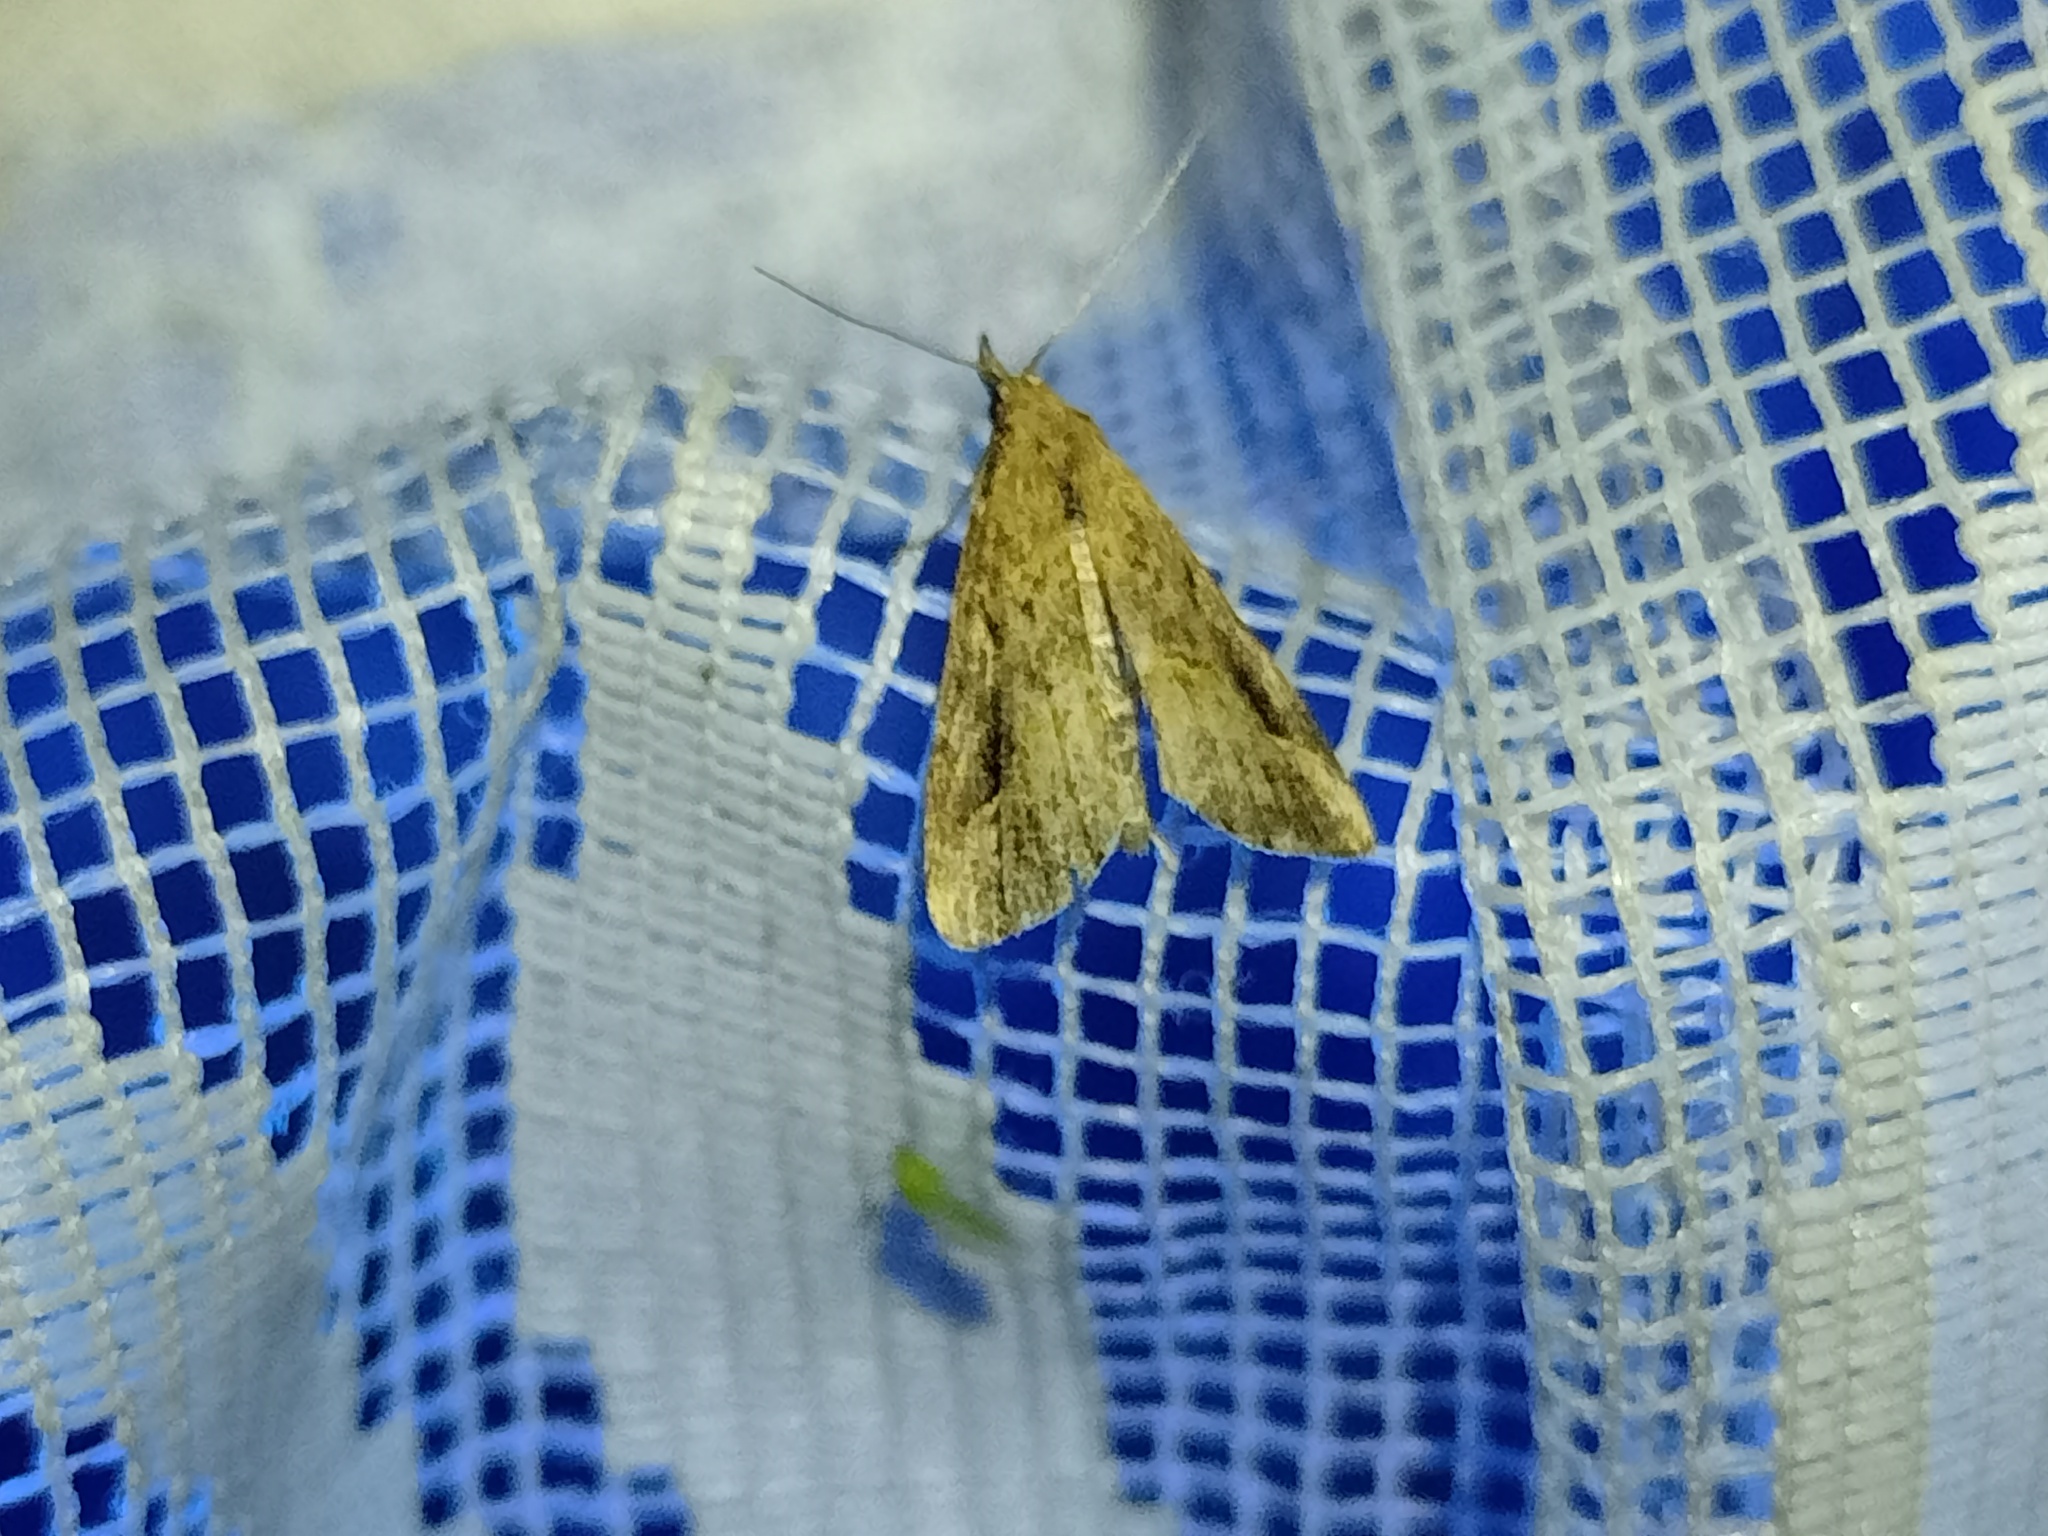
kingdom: Animalia
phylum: Arthropoda
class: Insecta
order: Lepidoptera
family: Erebidae
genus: Schrankia
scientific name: Schrankia costaestrigalis
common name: Pinion-streaked snout
